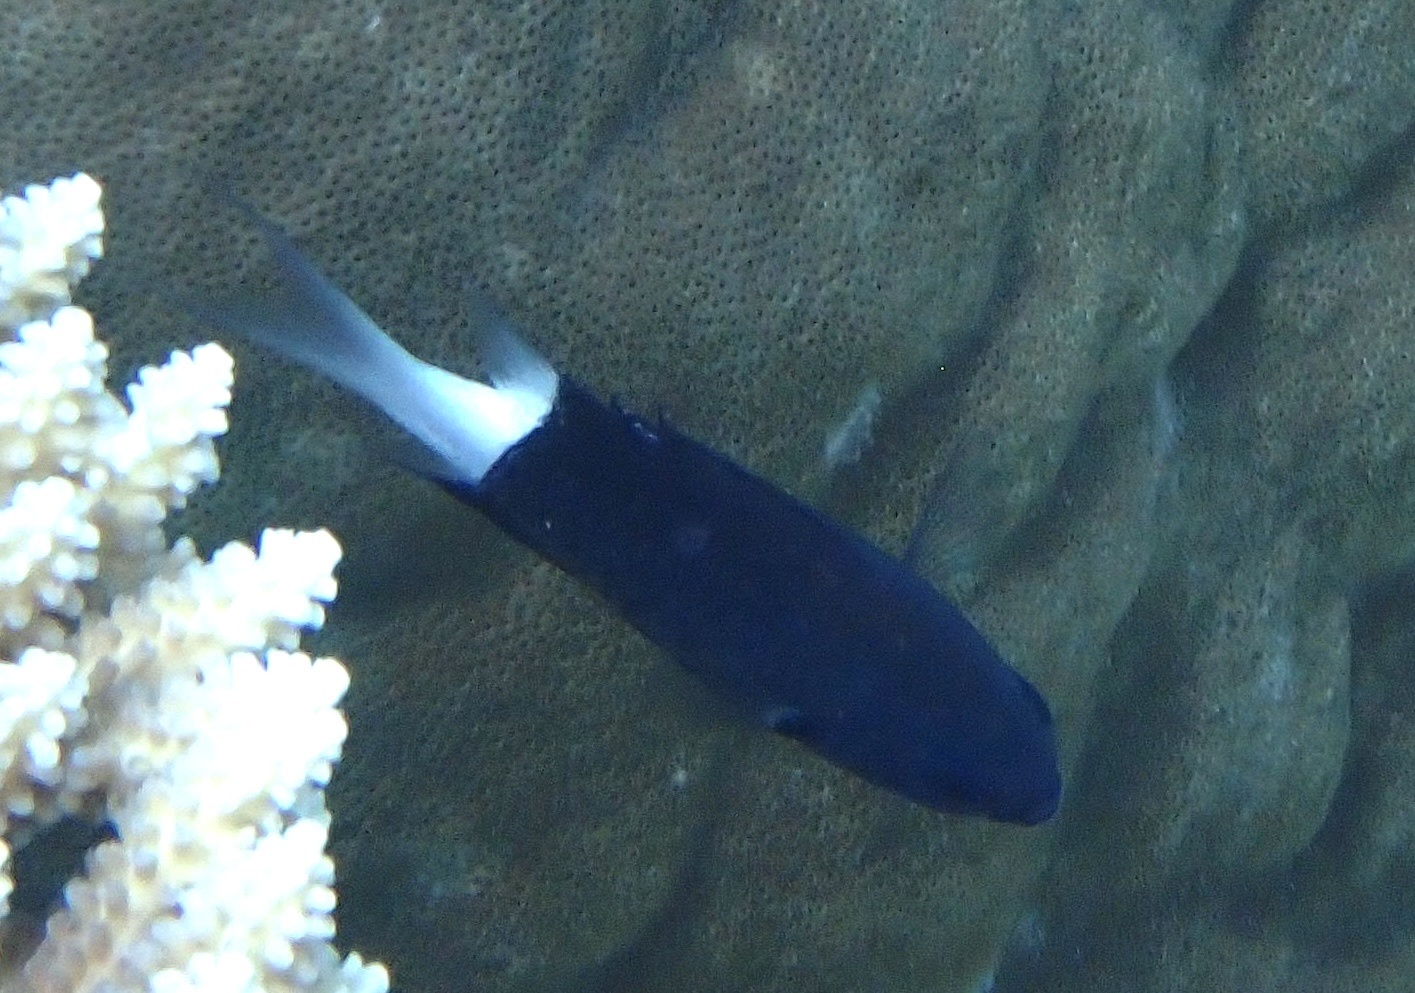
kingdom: Animalia
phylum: Chordata
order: Perciformes
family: Pomacentridae
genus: Pycnochromis
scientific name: Pycnochromis margaritifer
